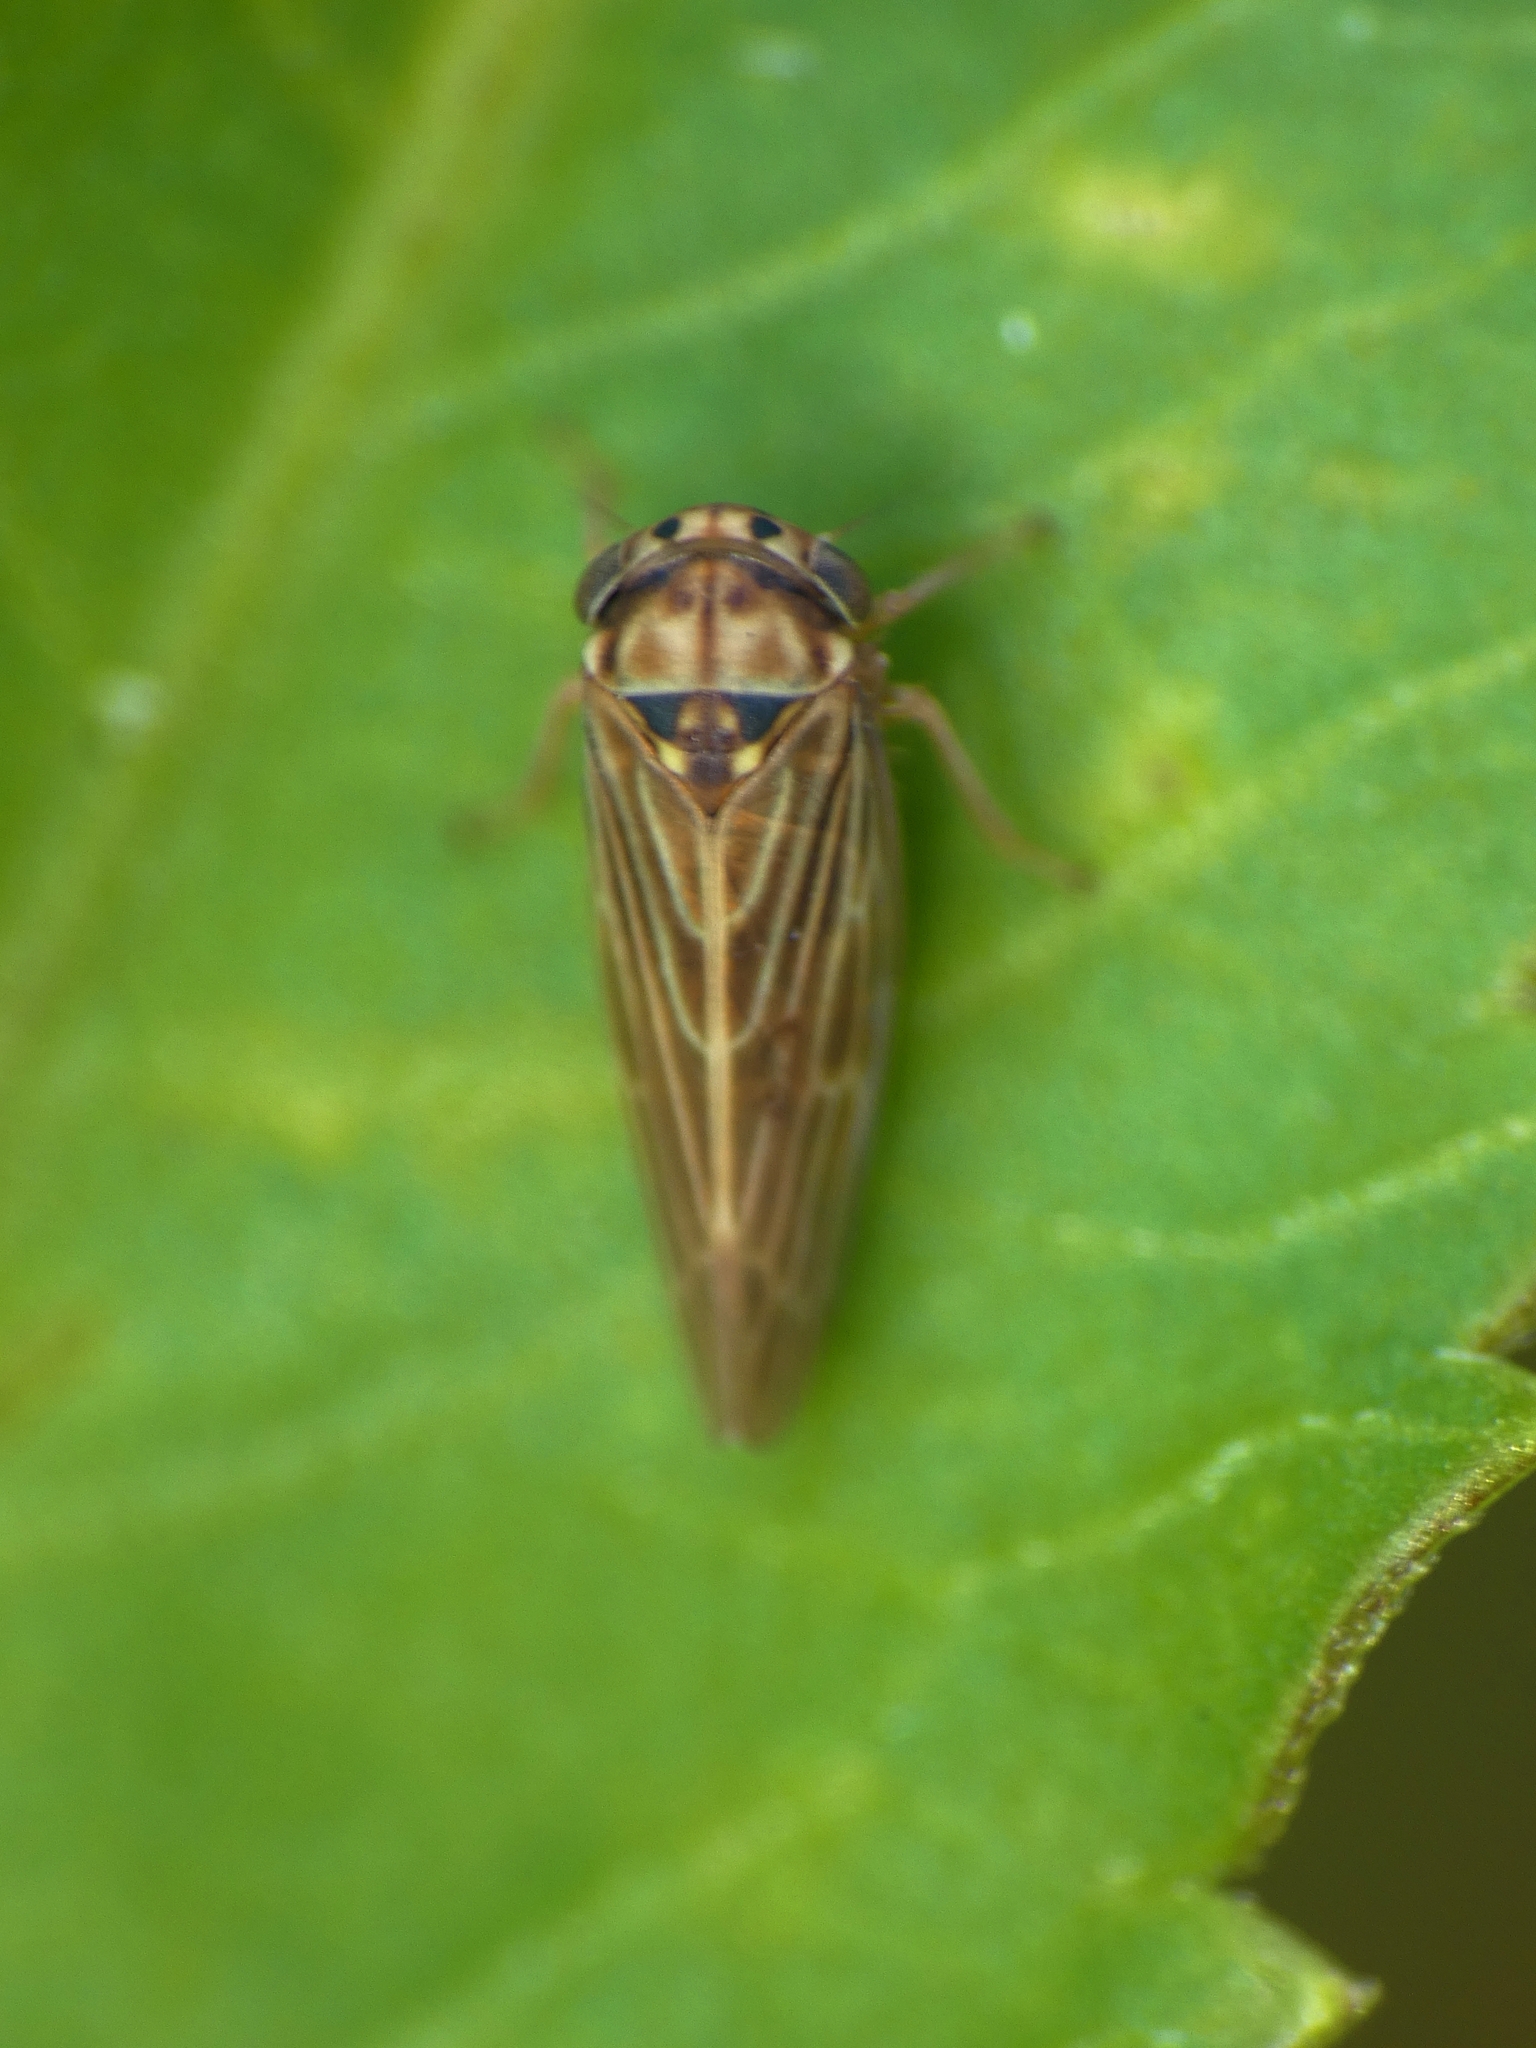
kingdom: Animalia
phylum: Arthropoda
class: Insecta
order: Hemiptera
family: Cicadellidae
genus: Agallia
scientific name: Agallia nielsoni
